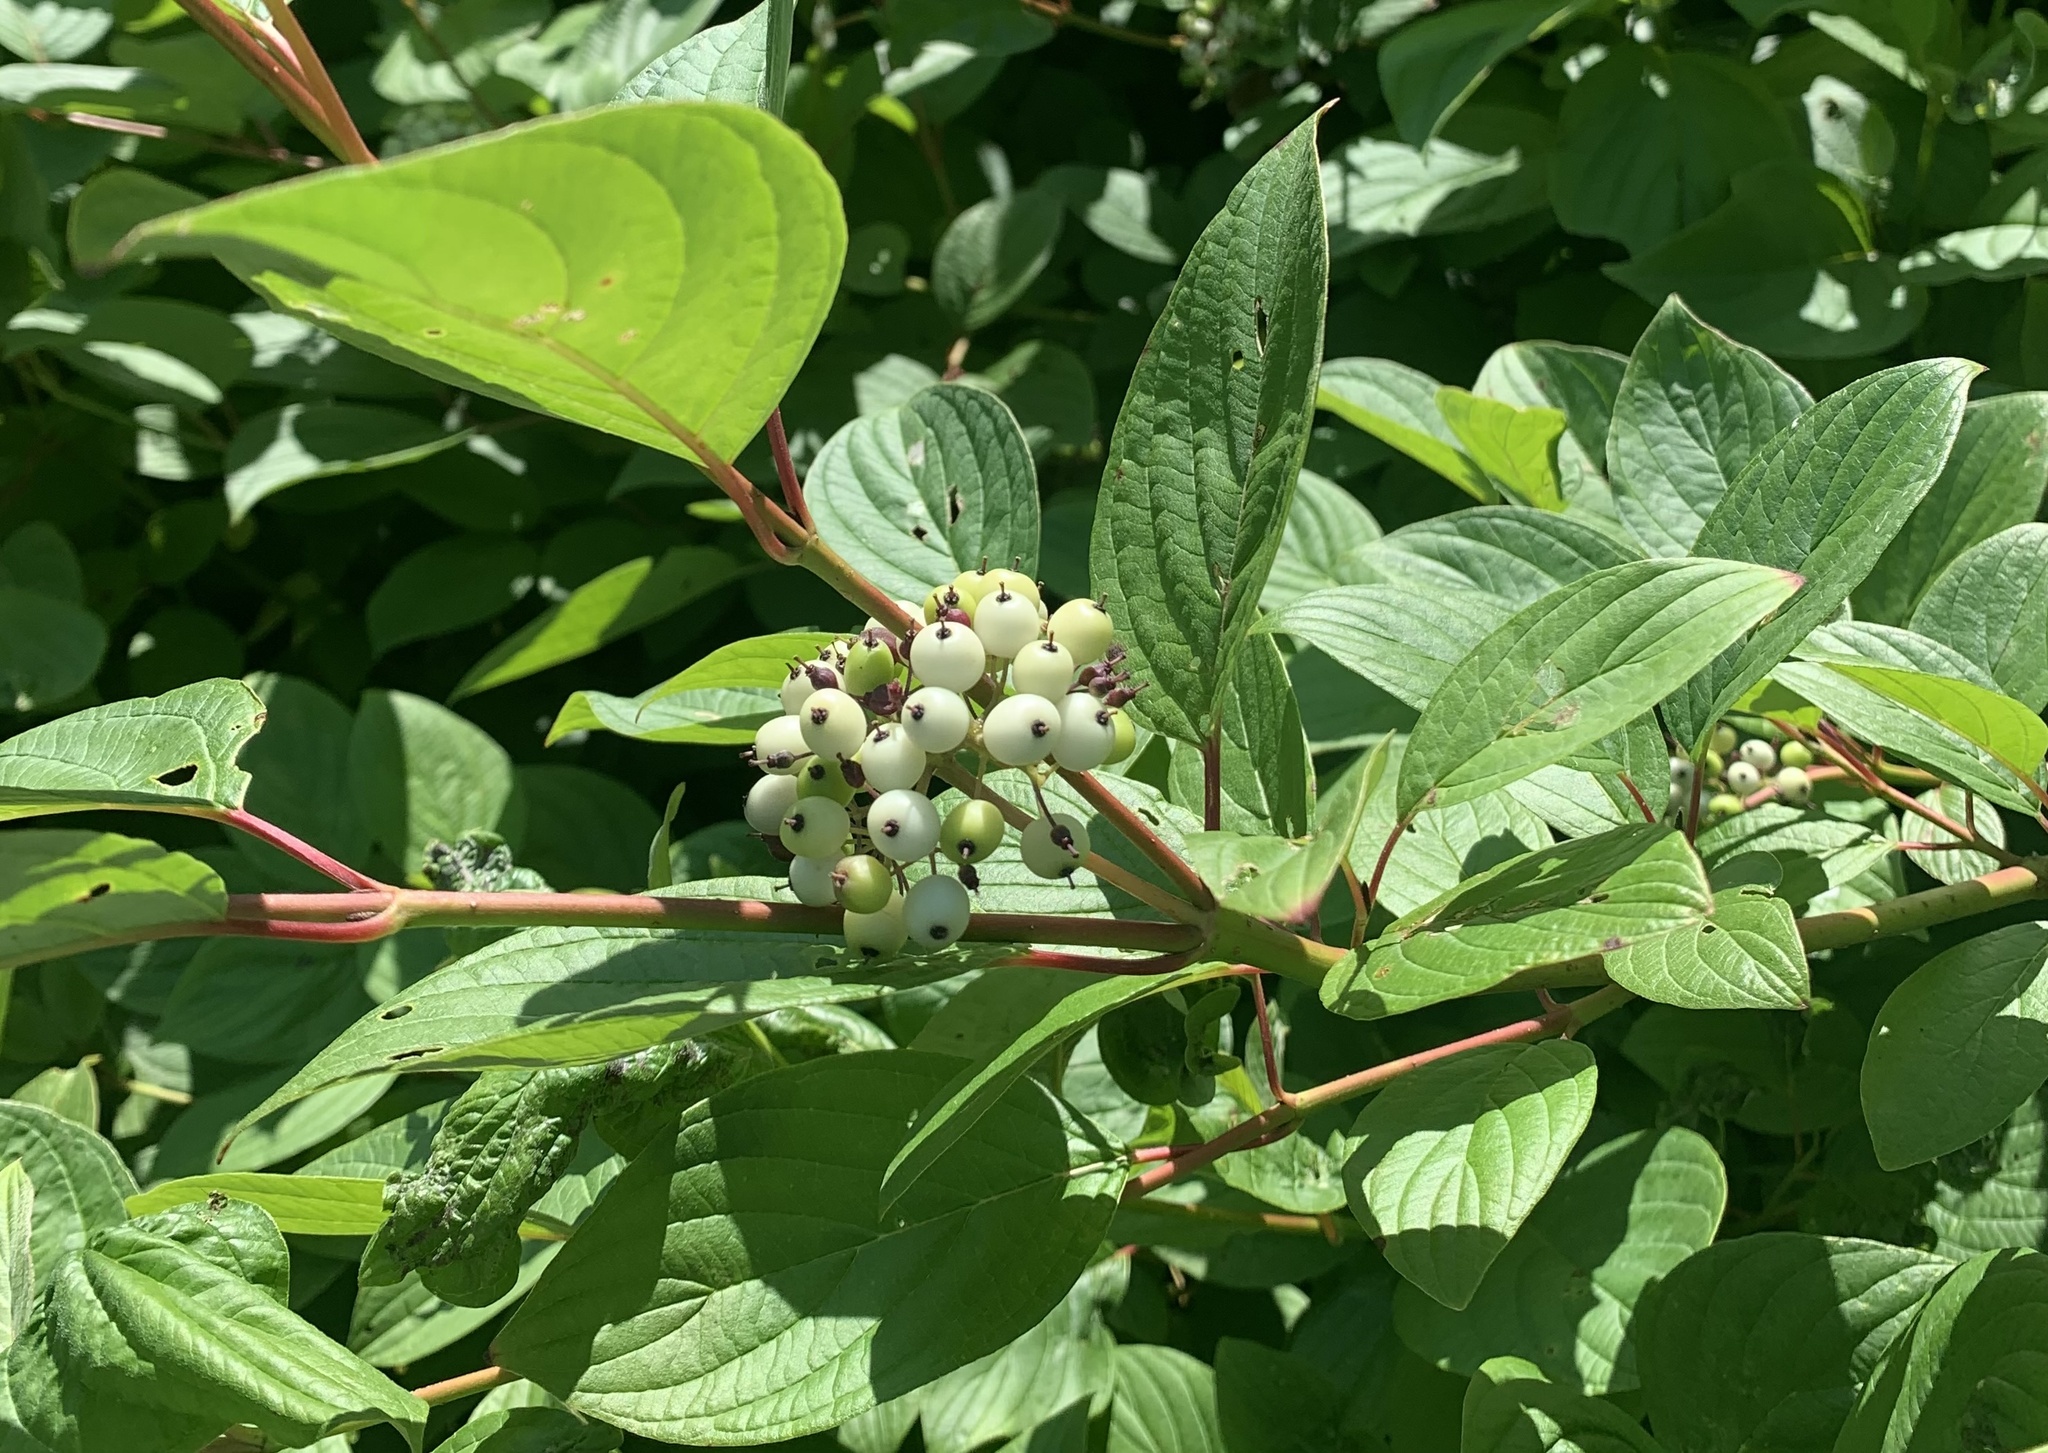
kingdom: Plantae
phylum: Tracheophyta
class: Magnoliopsida
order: Cornales
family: Cornaceae
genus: Cornus
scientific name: Cornus sericea
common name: Red-osier dogwood
